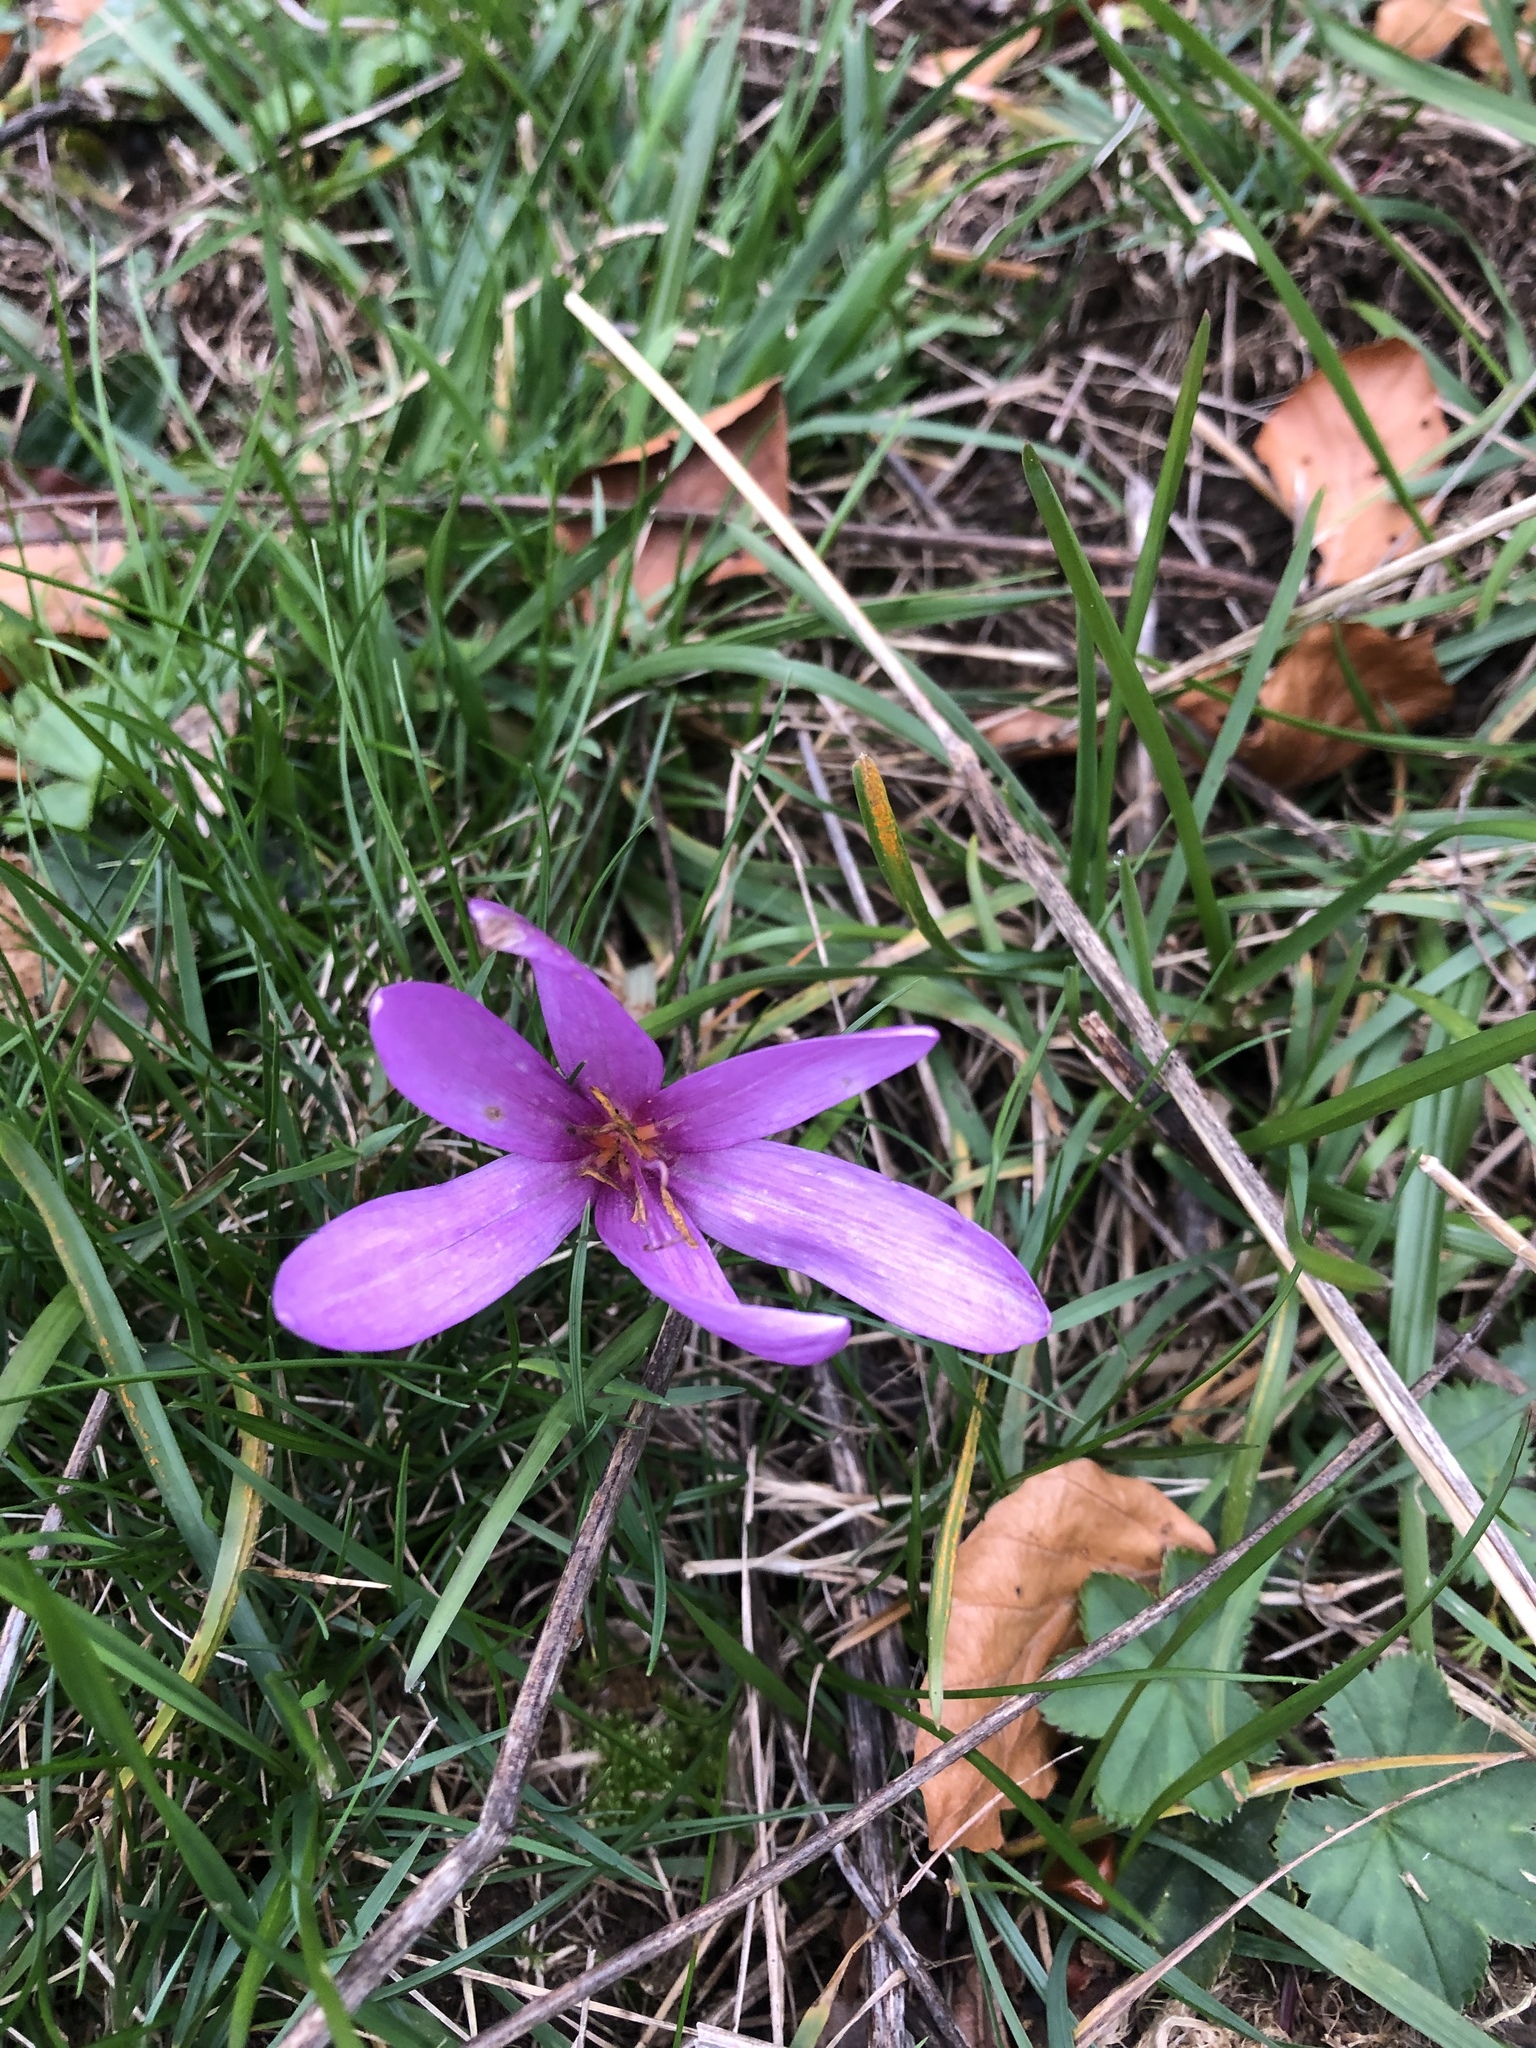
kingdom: Plantae
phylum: Tracheophyta
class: Liliopsida
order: Liliales
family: Colchicaceae
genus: Colchicum
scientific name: Colchicum autumnale
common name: Autumn crocus
